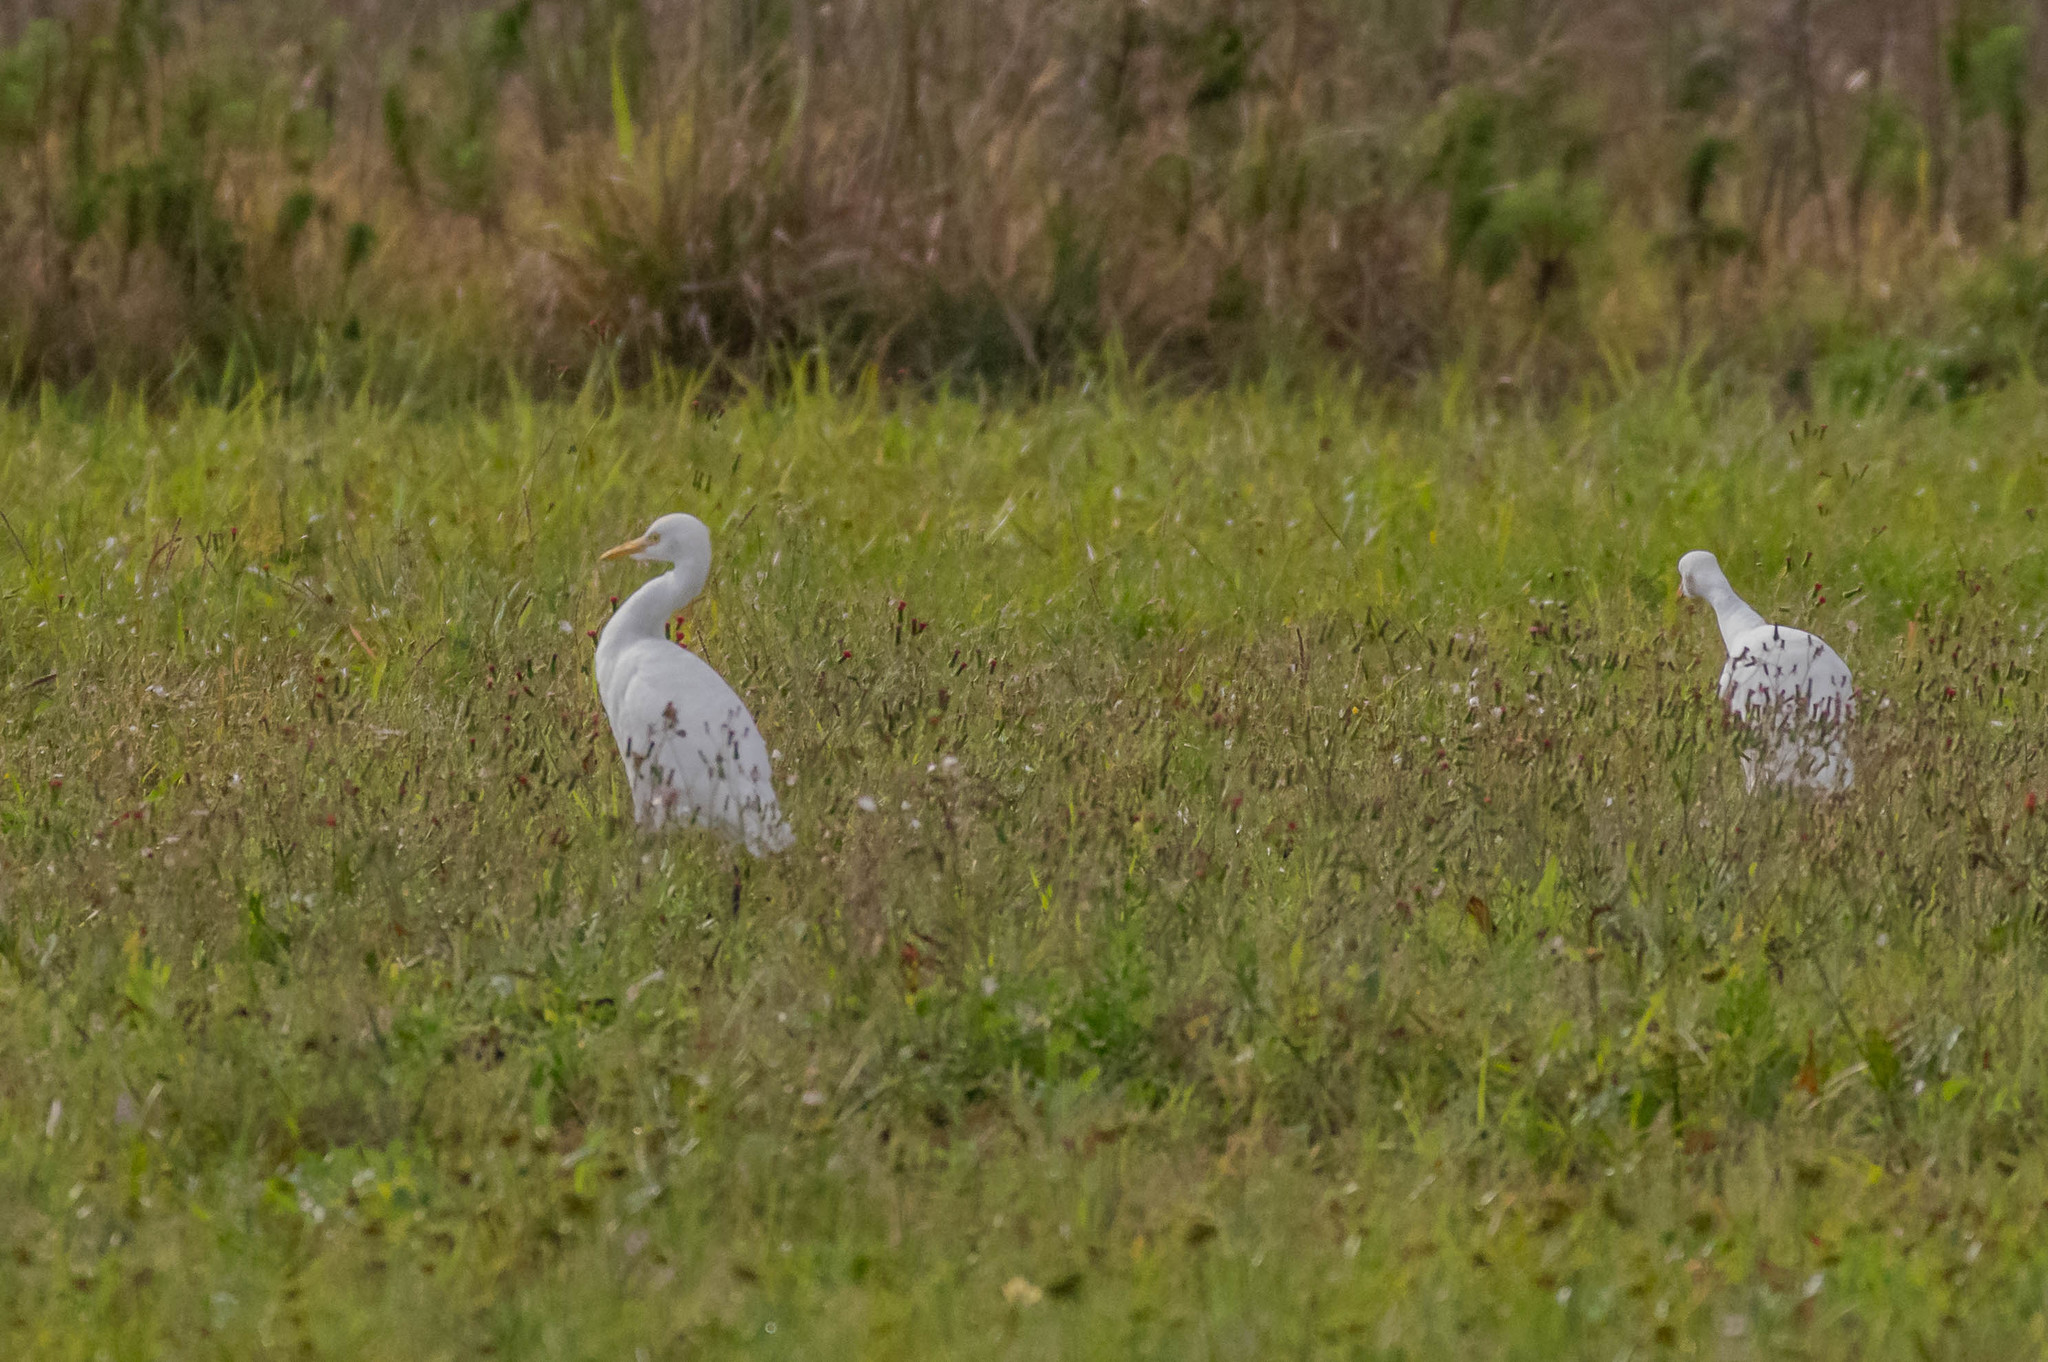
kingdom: Animalia
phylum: Chordata
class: Aves
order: Pelecaniformes
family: Ardeidae
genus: Bubulcus
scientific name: Bubulcus ibis
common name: Cattle egret
